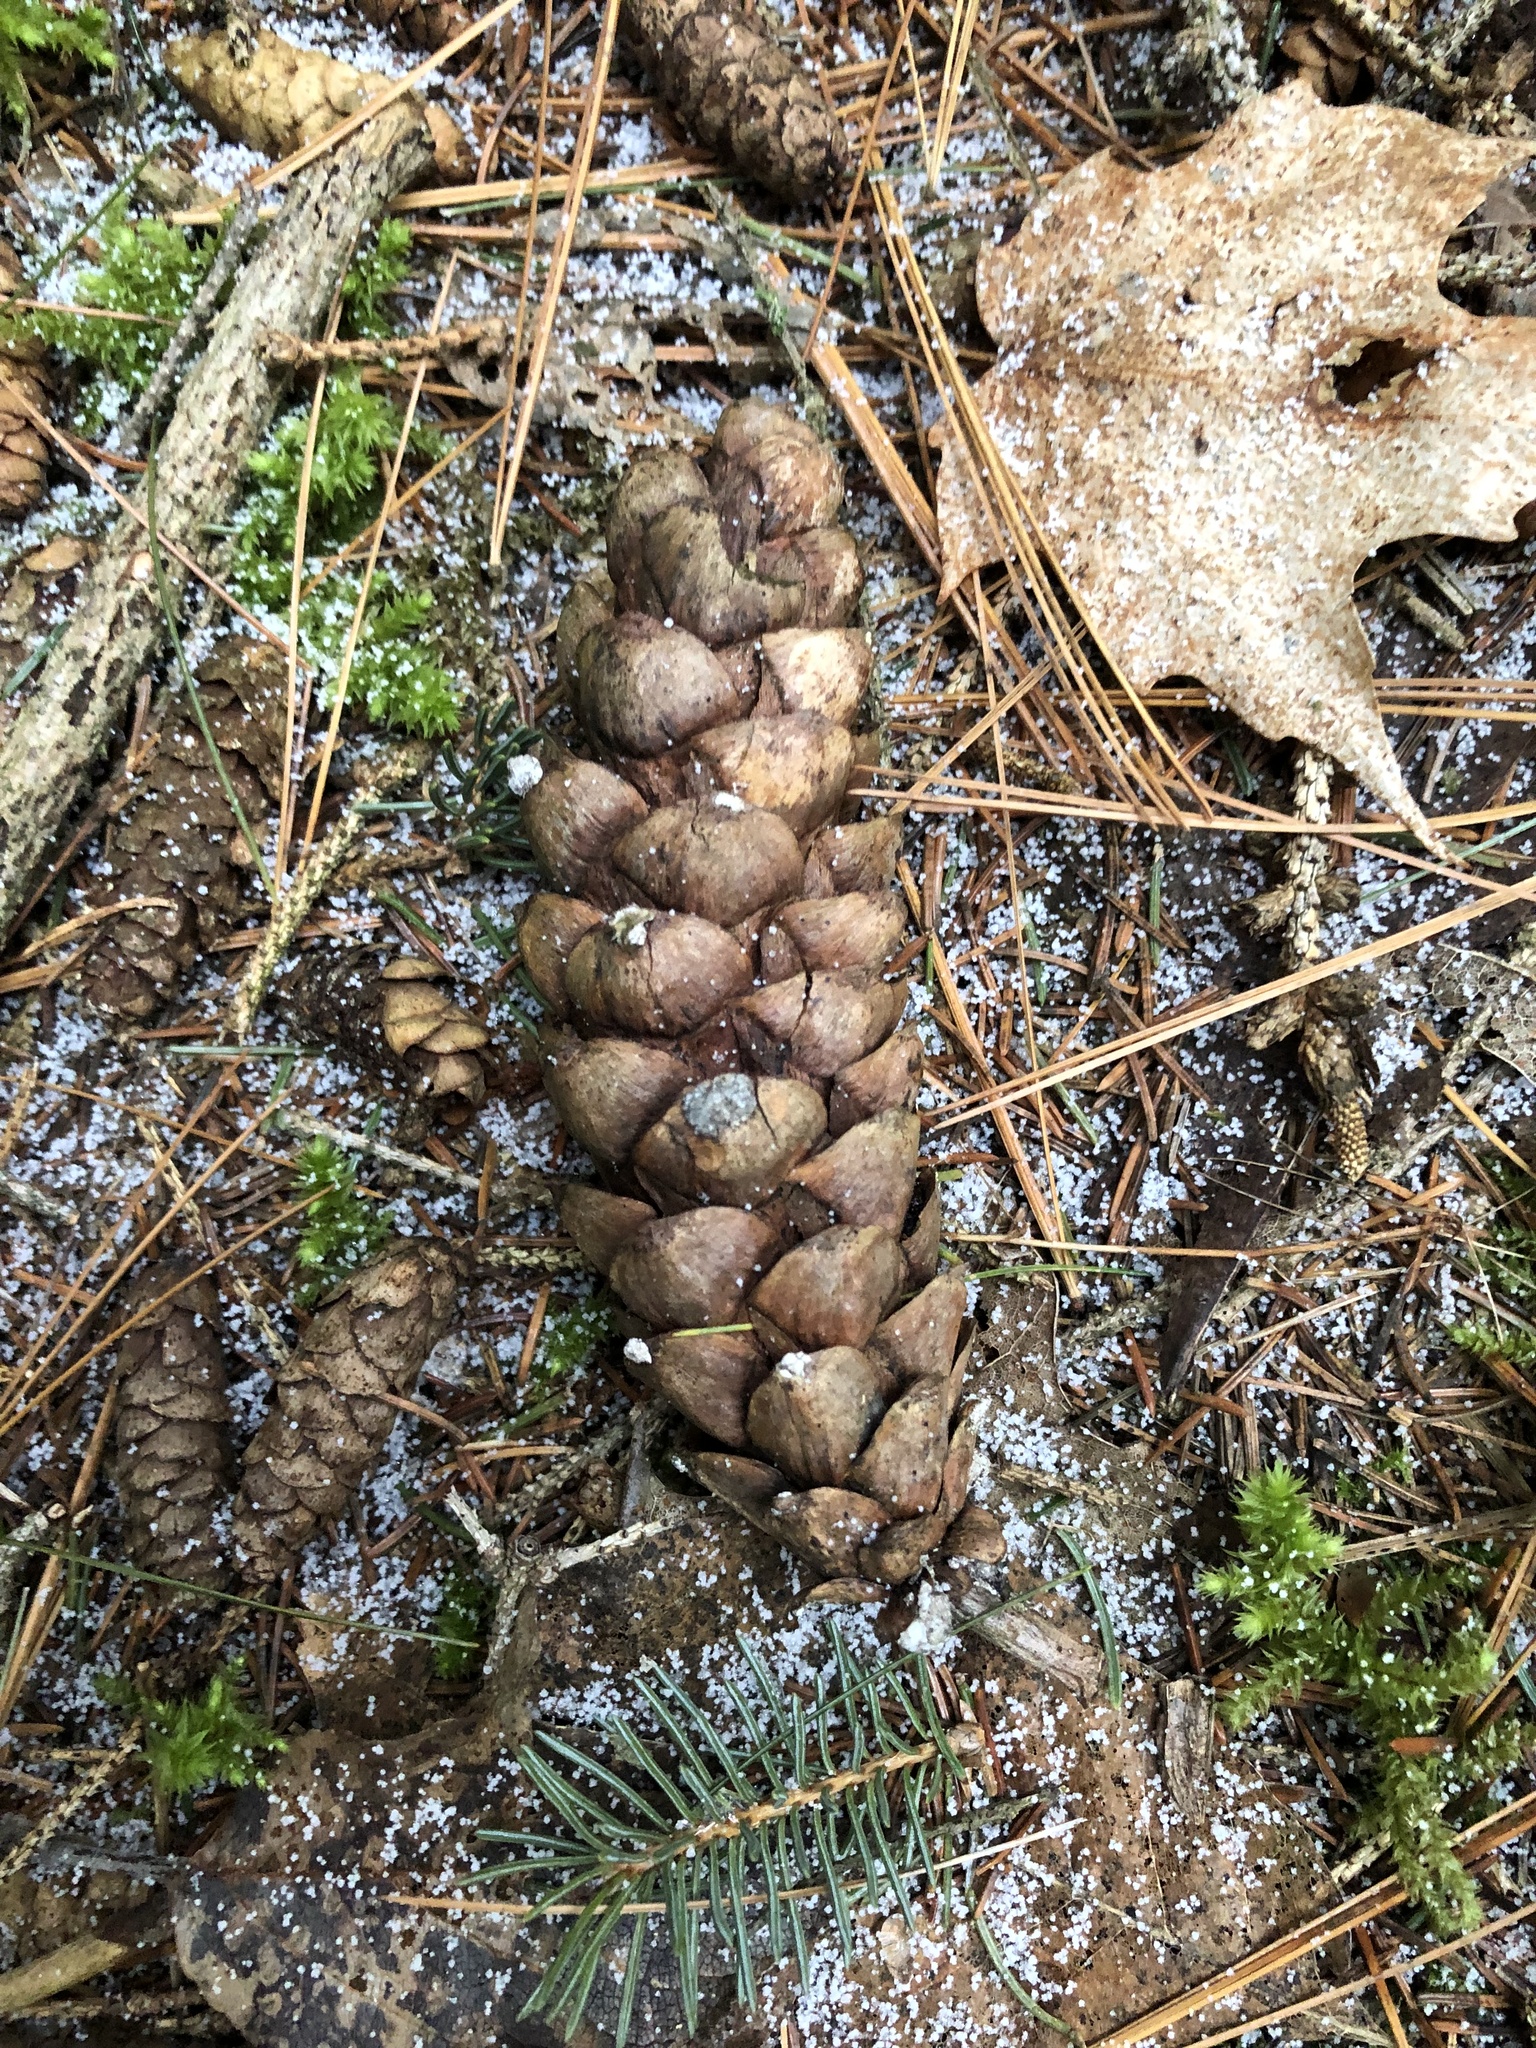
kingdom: Plantae
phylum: Tracheophyta
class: Pinopsida
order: Pinales
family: Pinaceae
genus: Pinus
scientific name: Pinus strobus
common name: Weymouth pine
